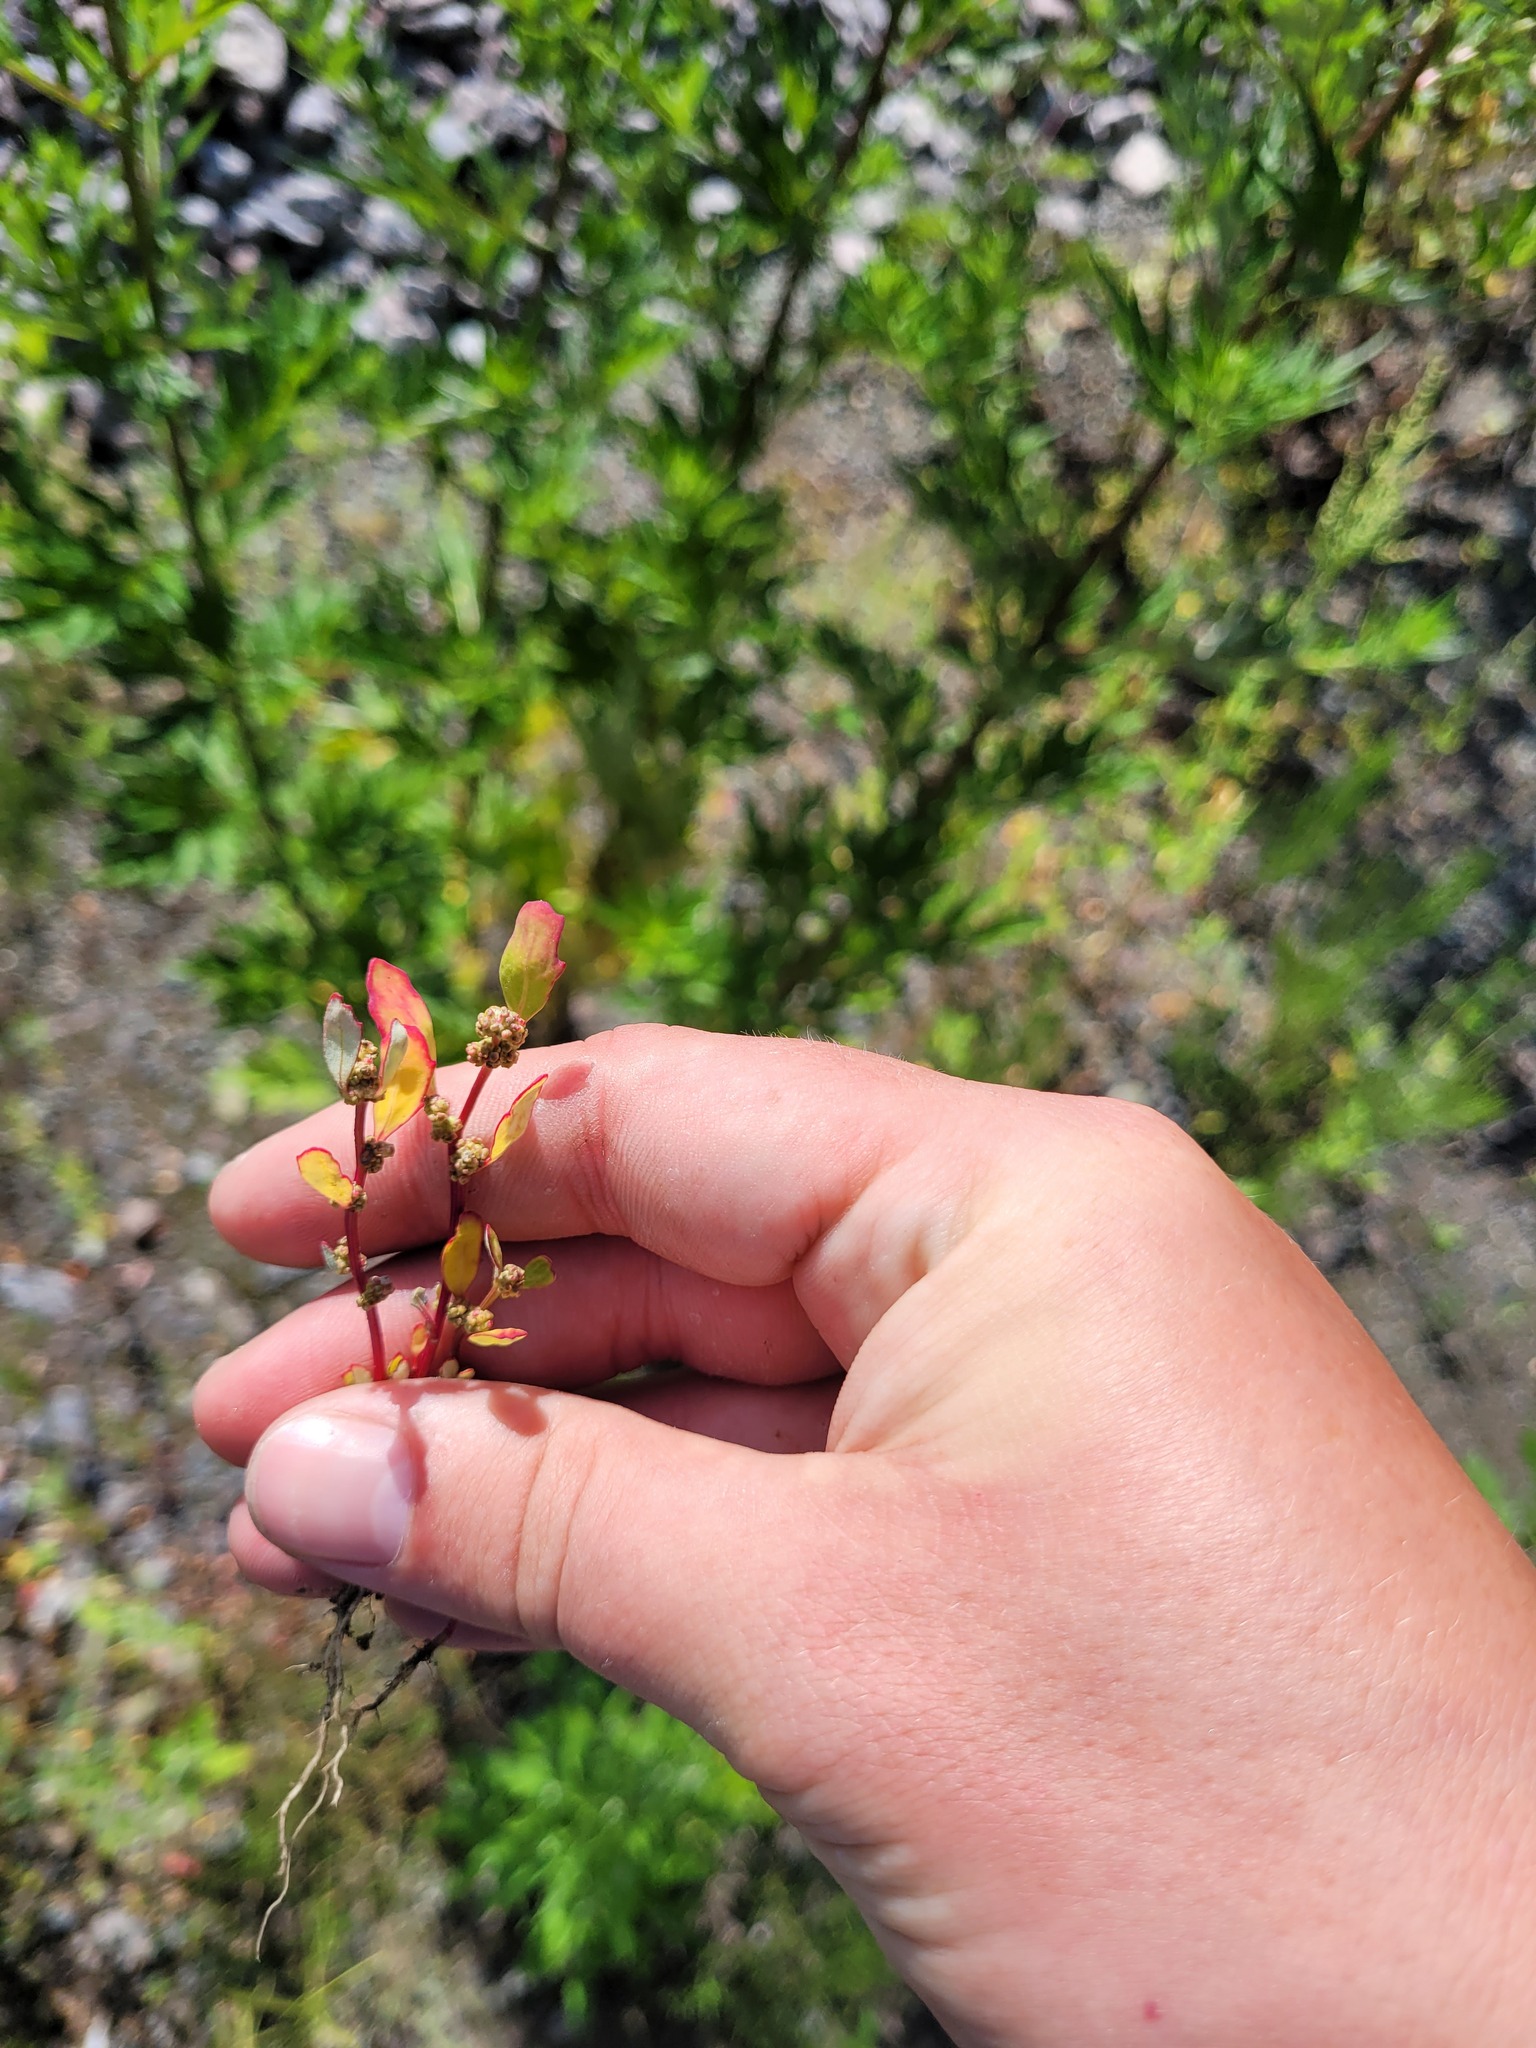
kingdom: Plantae
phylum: Tracheophyta
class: Magnoliopsida
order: Caryophyllales
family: Amaranthaceae
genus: Oxybasis
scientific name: Oxybasis glauca
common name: Glaucous goosefoot
